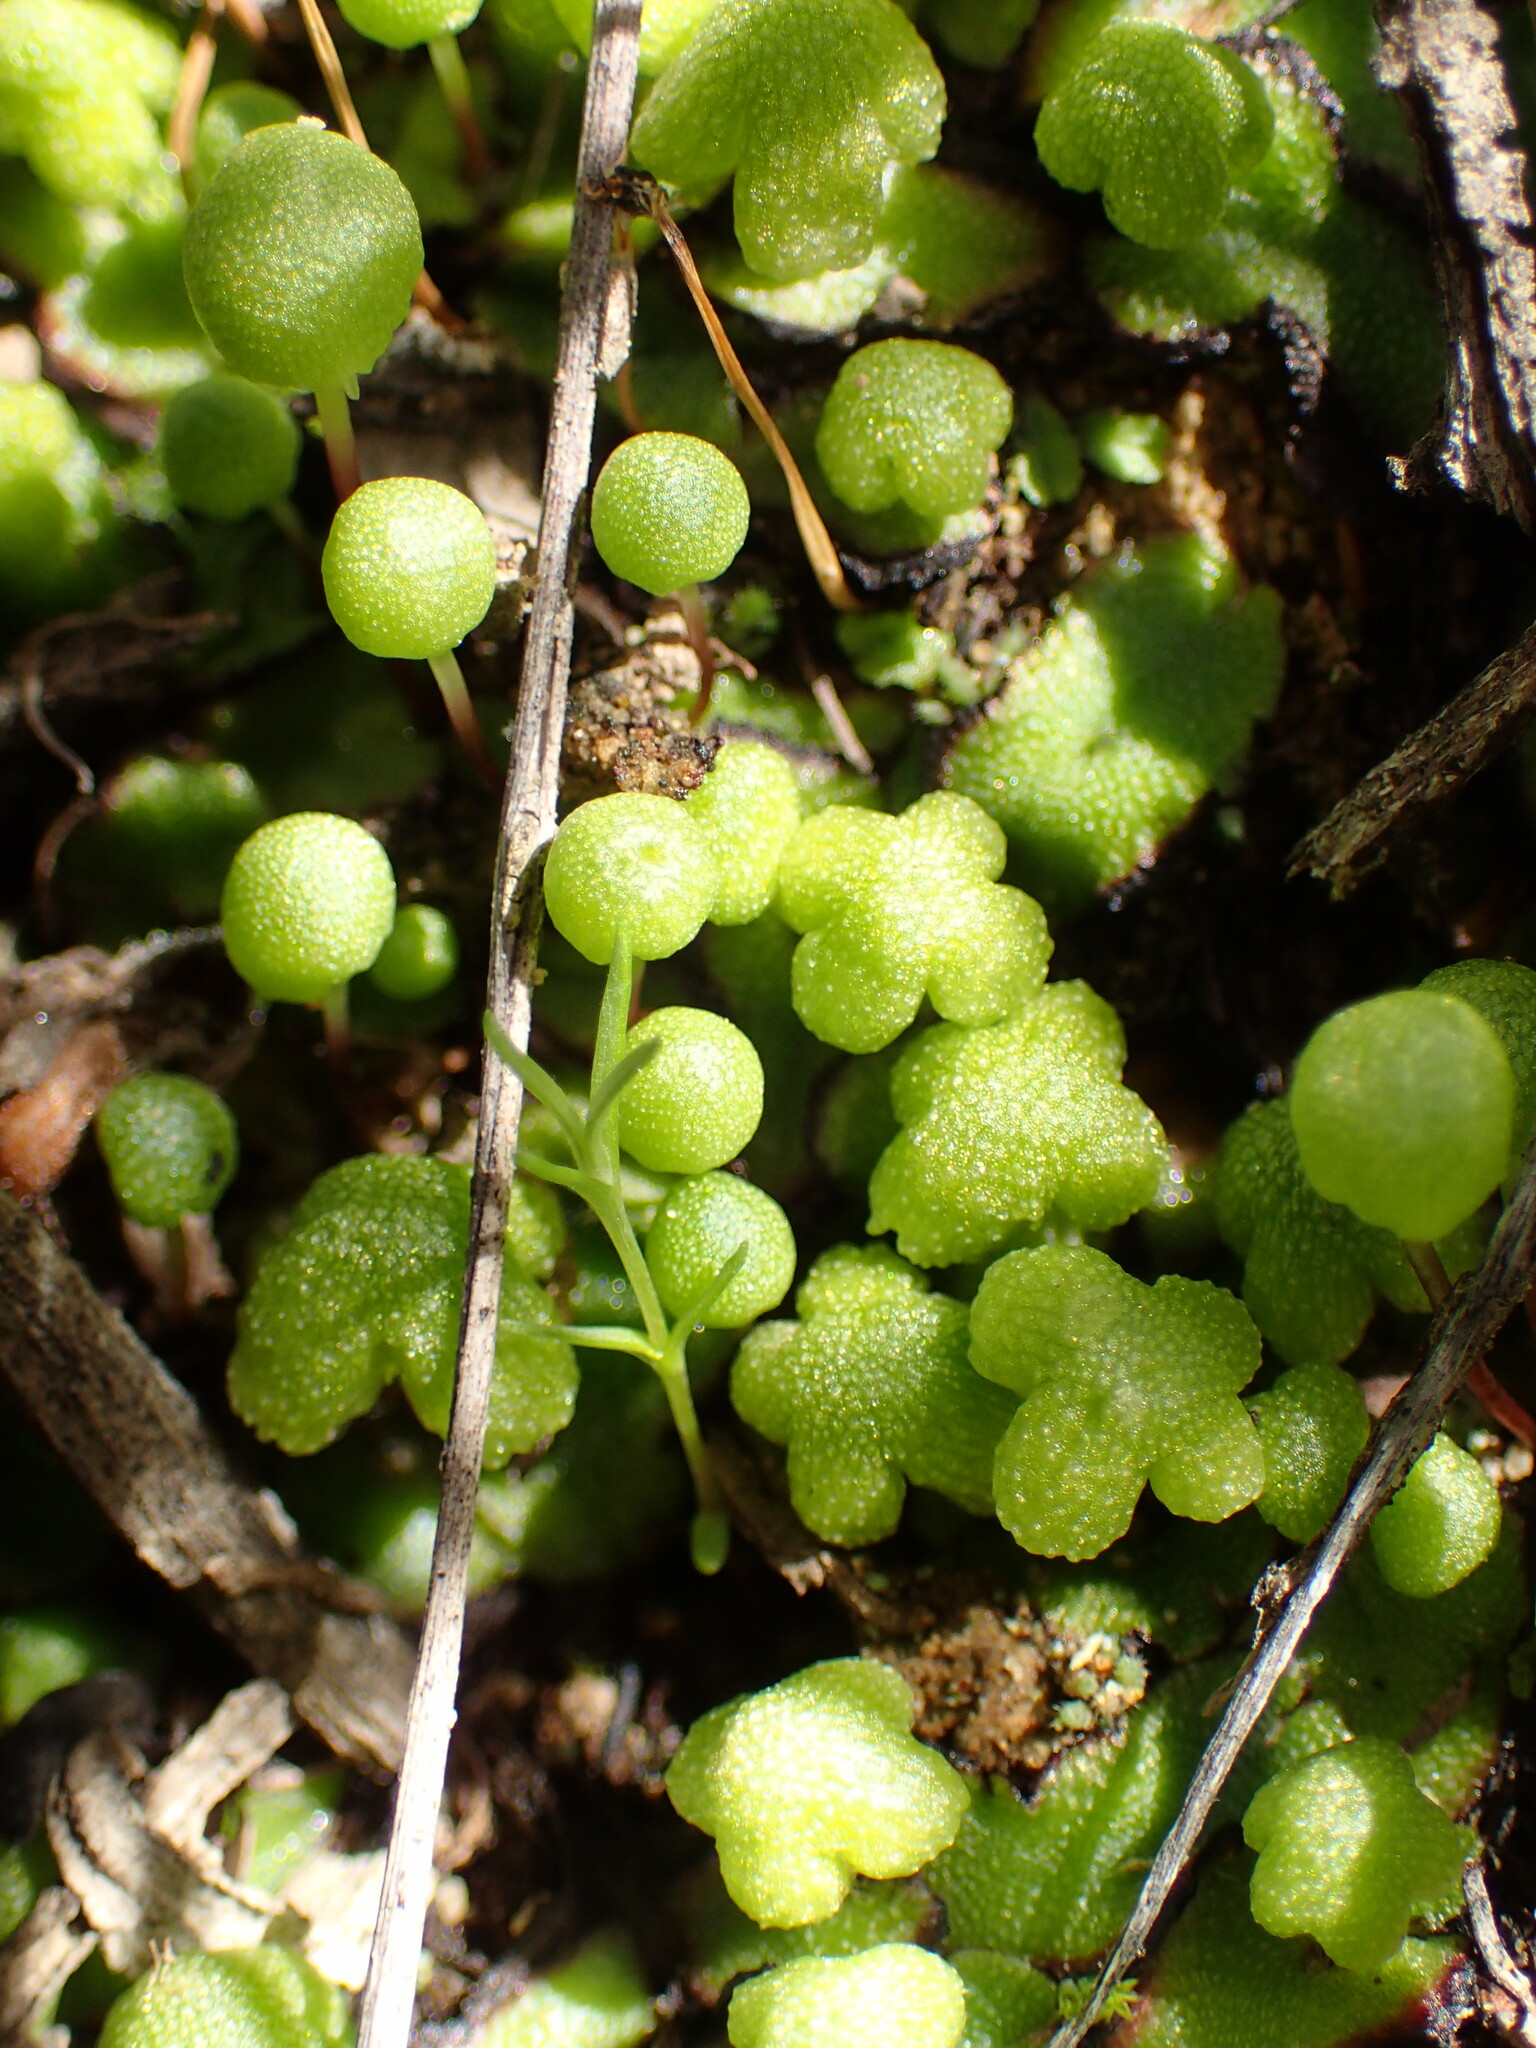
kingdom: Plantae
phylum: Marchantiophyta
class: Marchantiopsida
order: Marchantiales
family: Aytoniaceae
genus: Asterella
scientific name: Asterella palmeri
